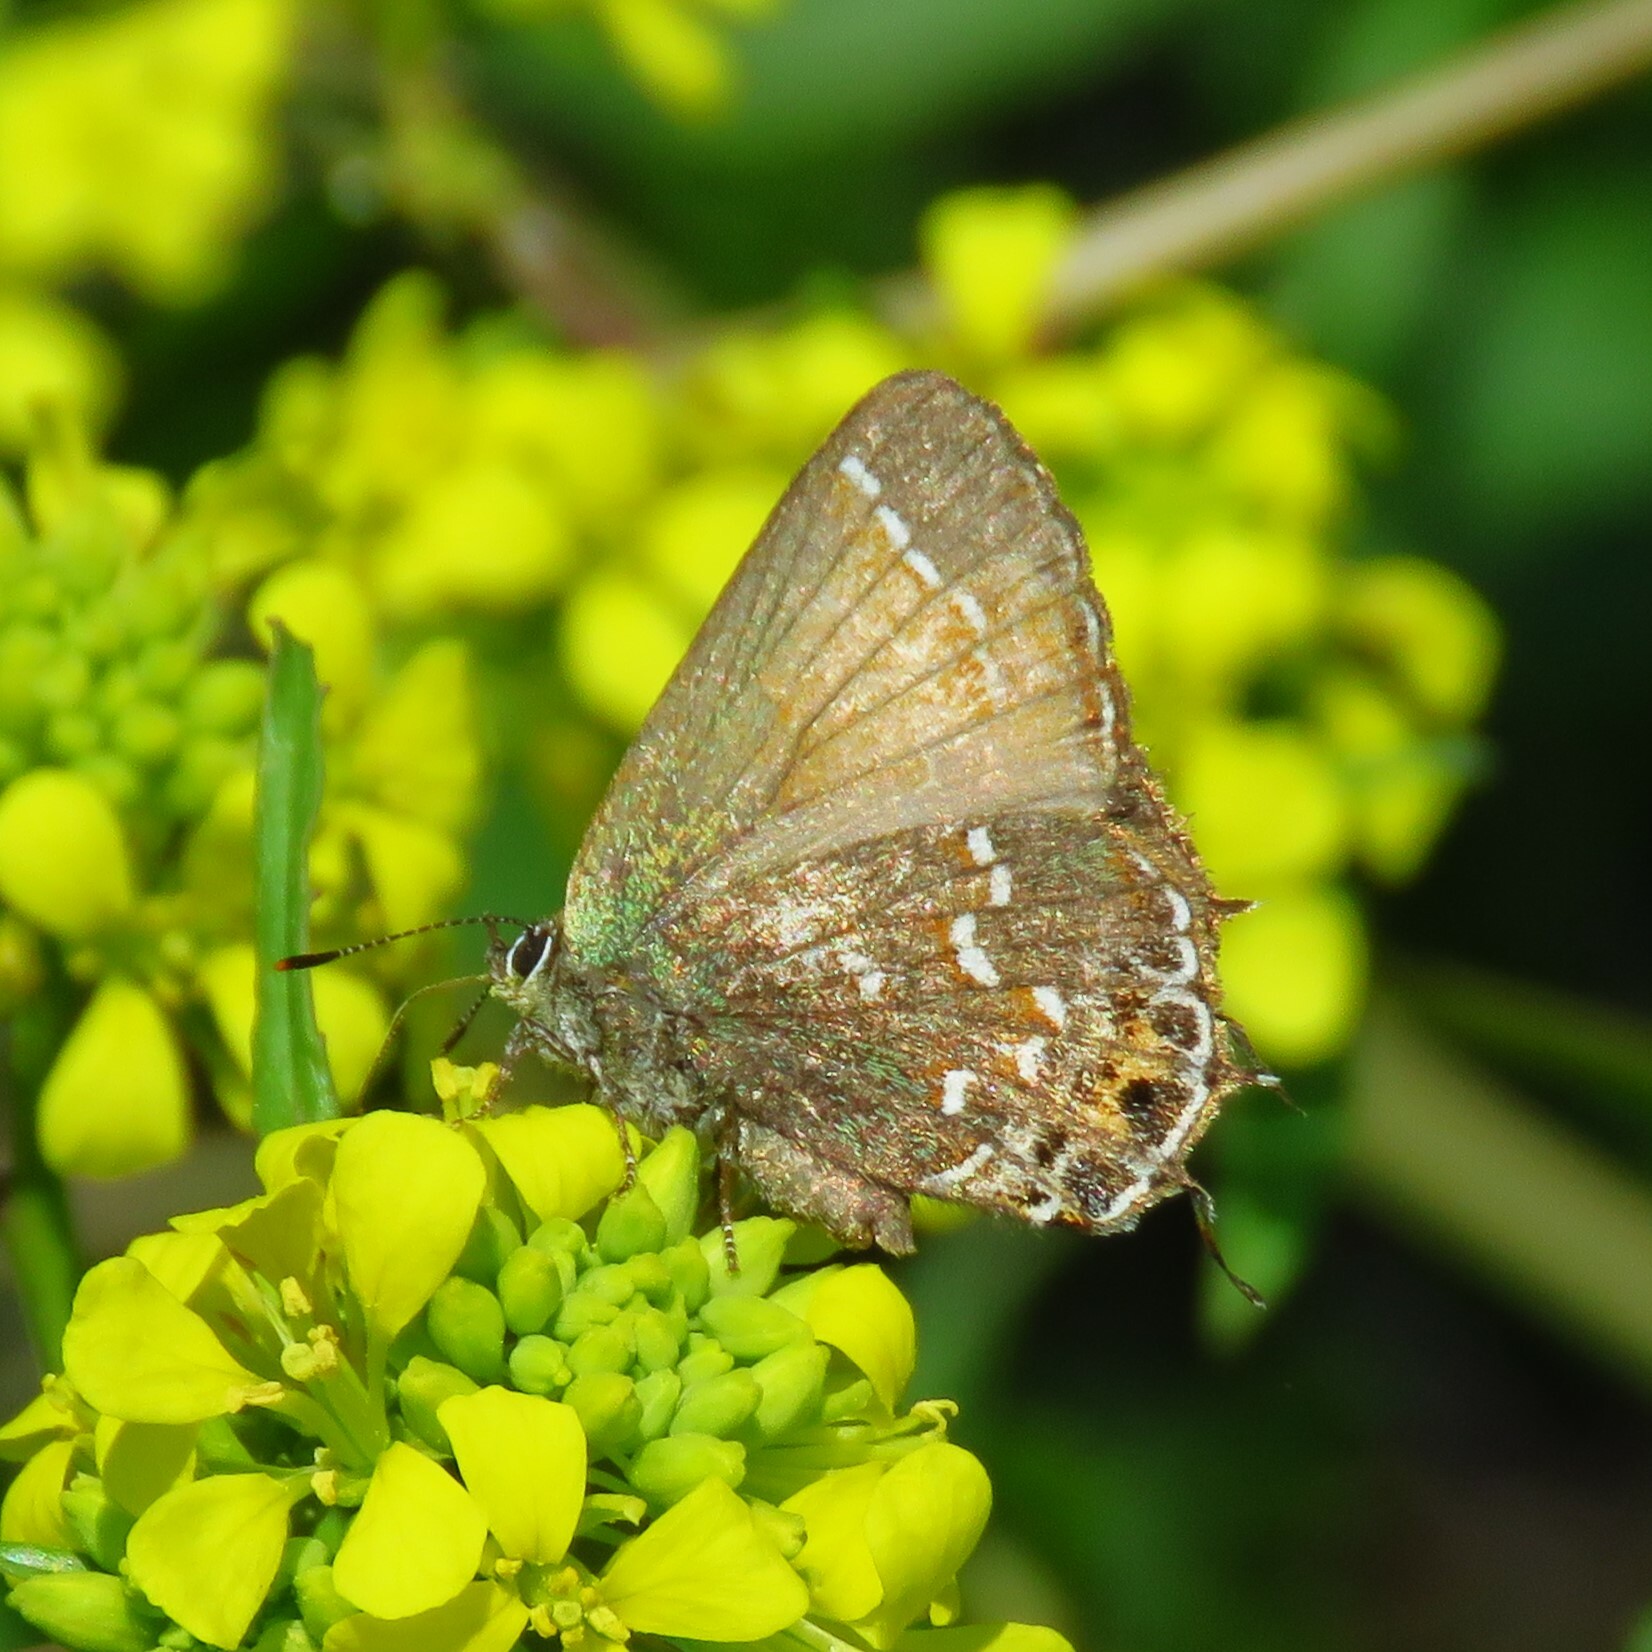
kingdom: Animalia
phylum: Arthropoda
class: Insecta
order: Lepidoptera
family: Lycaenidae
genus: Mitoura
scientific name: Mitoura gryneus
